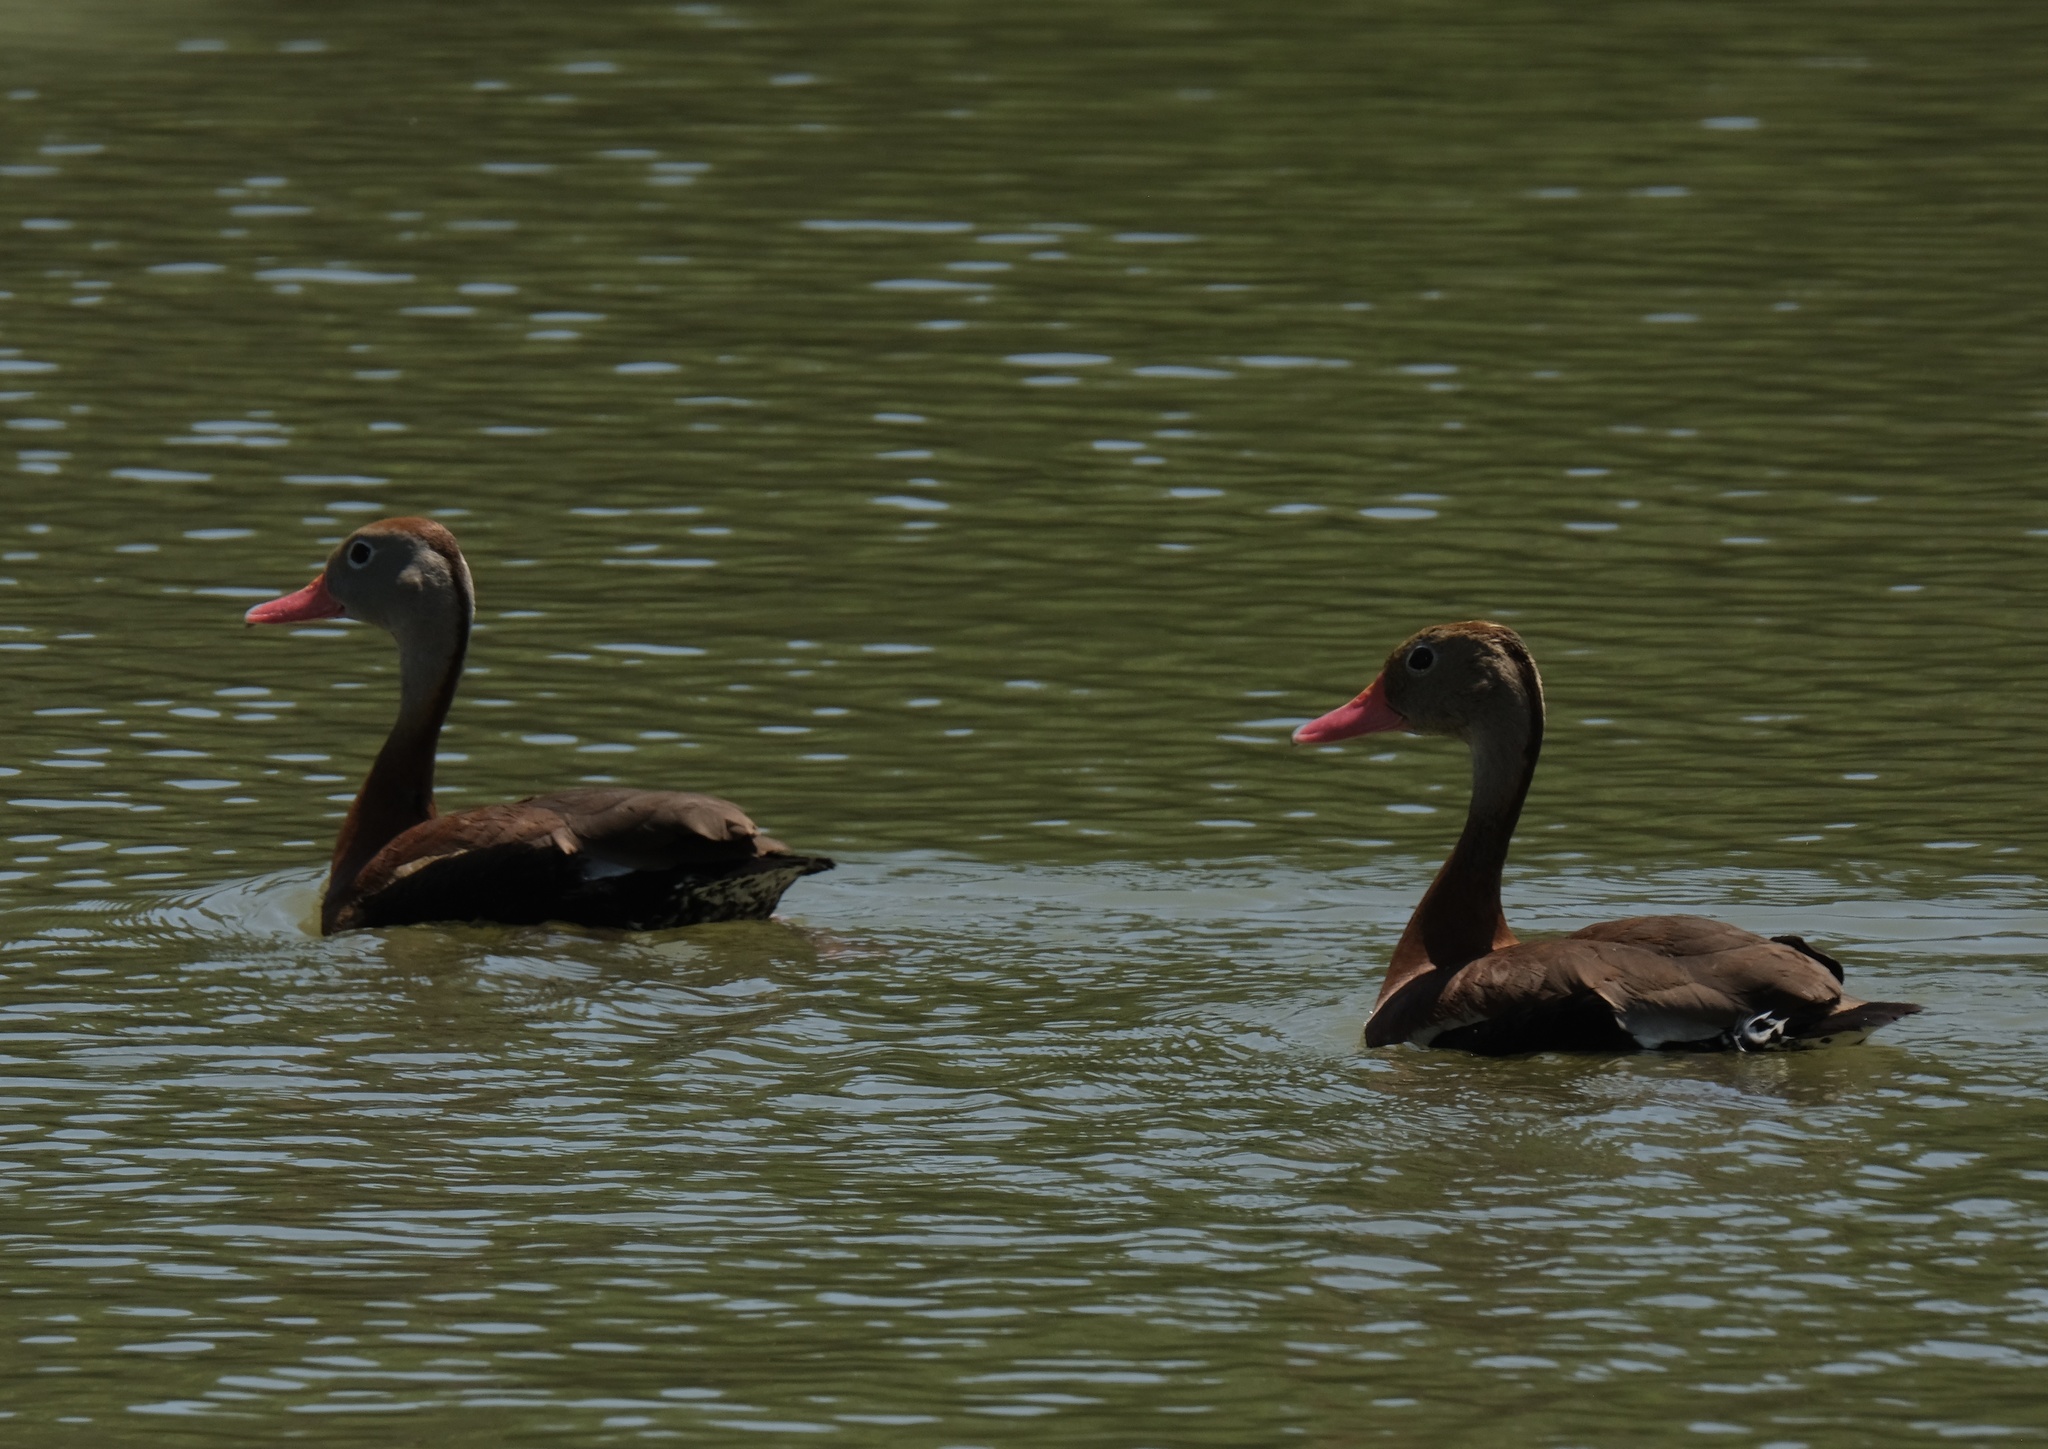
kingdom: Animalia
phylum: Chordata
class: Aves
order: Anseriformes
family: Anatidae
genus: Dendrocygna
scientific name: Dendrocygna autumnalis
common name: Black-bellied whistling duck
